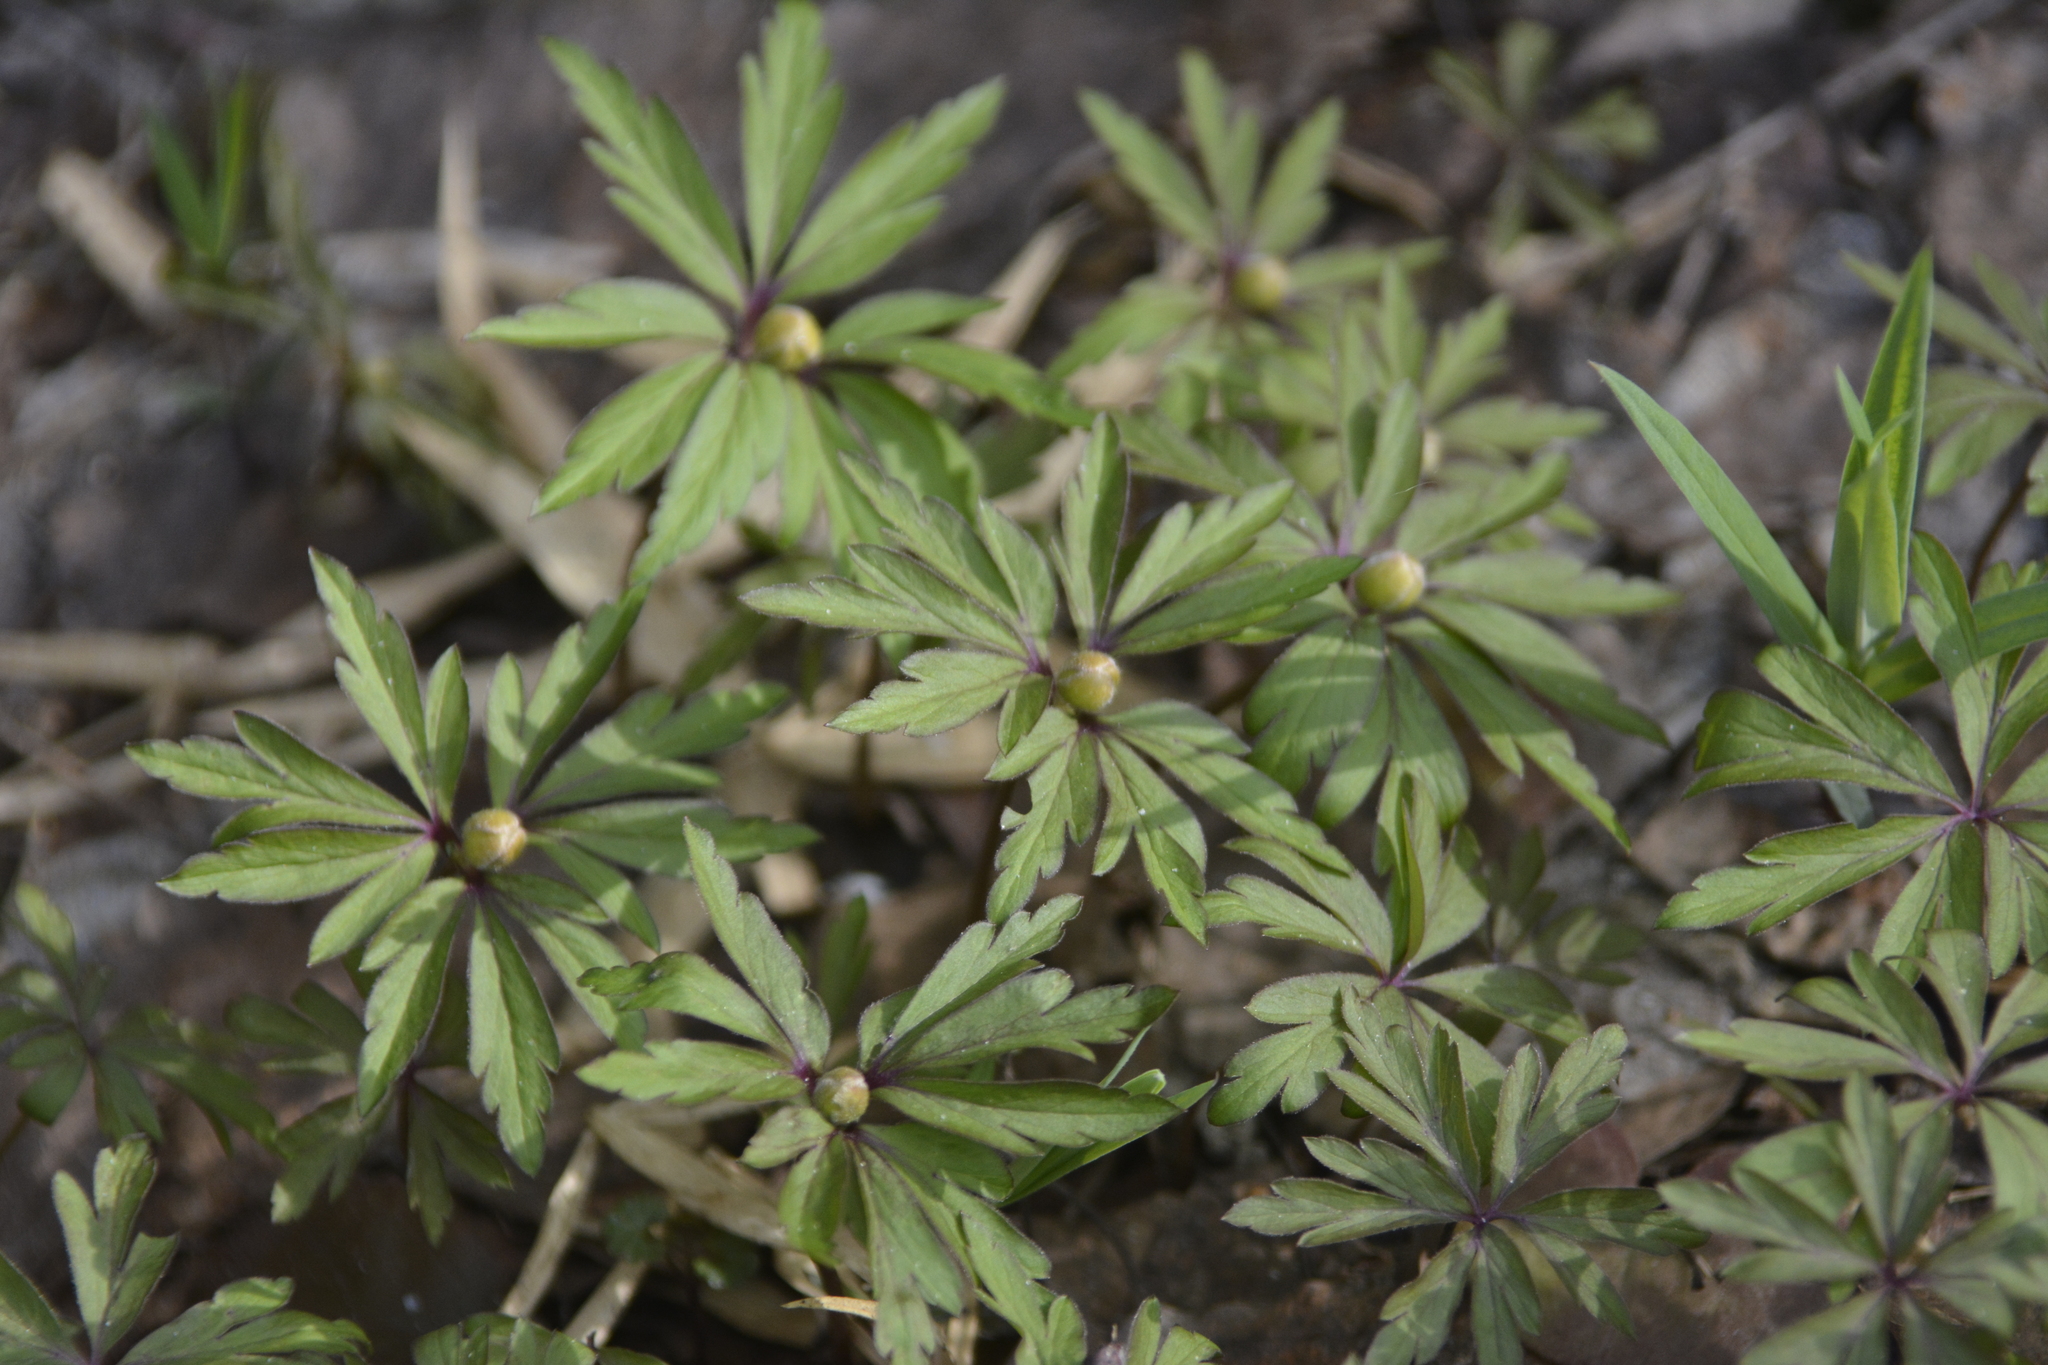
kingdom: Plantae
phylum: Tracheophyta
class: Magnoliopsida
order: Ranunculales
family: Ranunculaceae
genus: Anemone
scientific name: Anemone ranunculoides
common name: Yellow anemone
